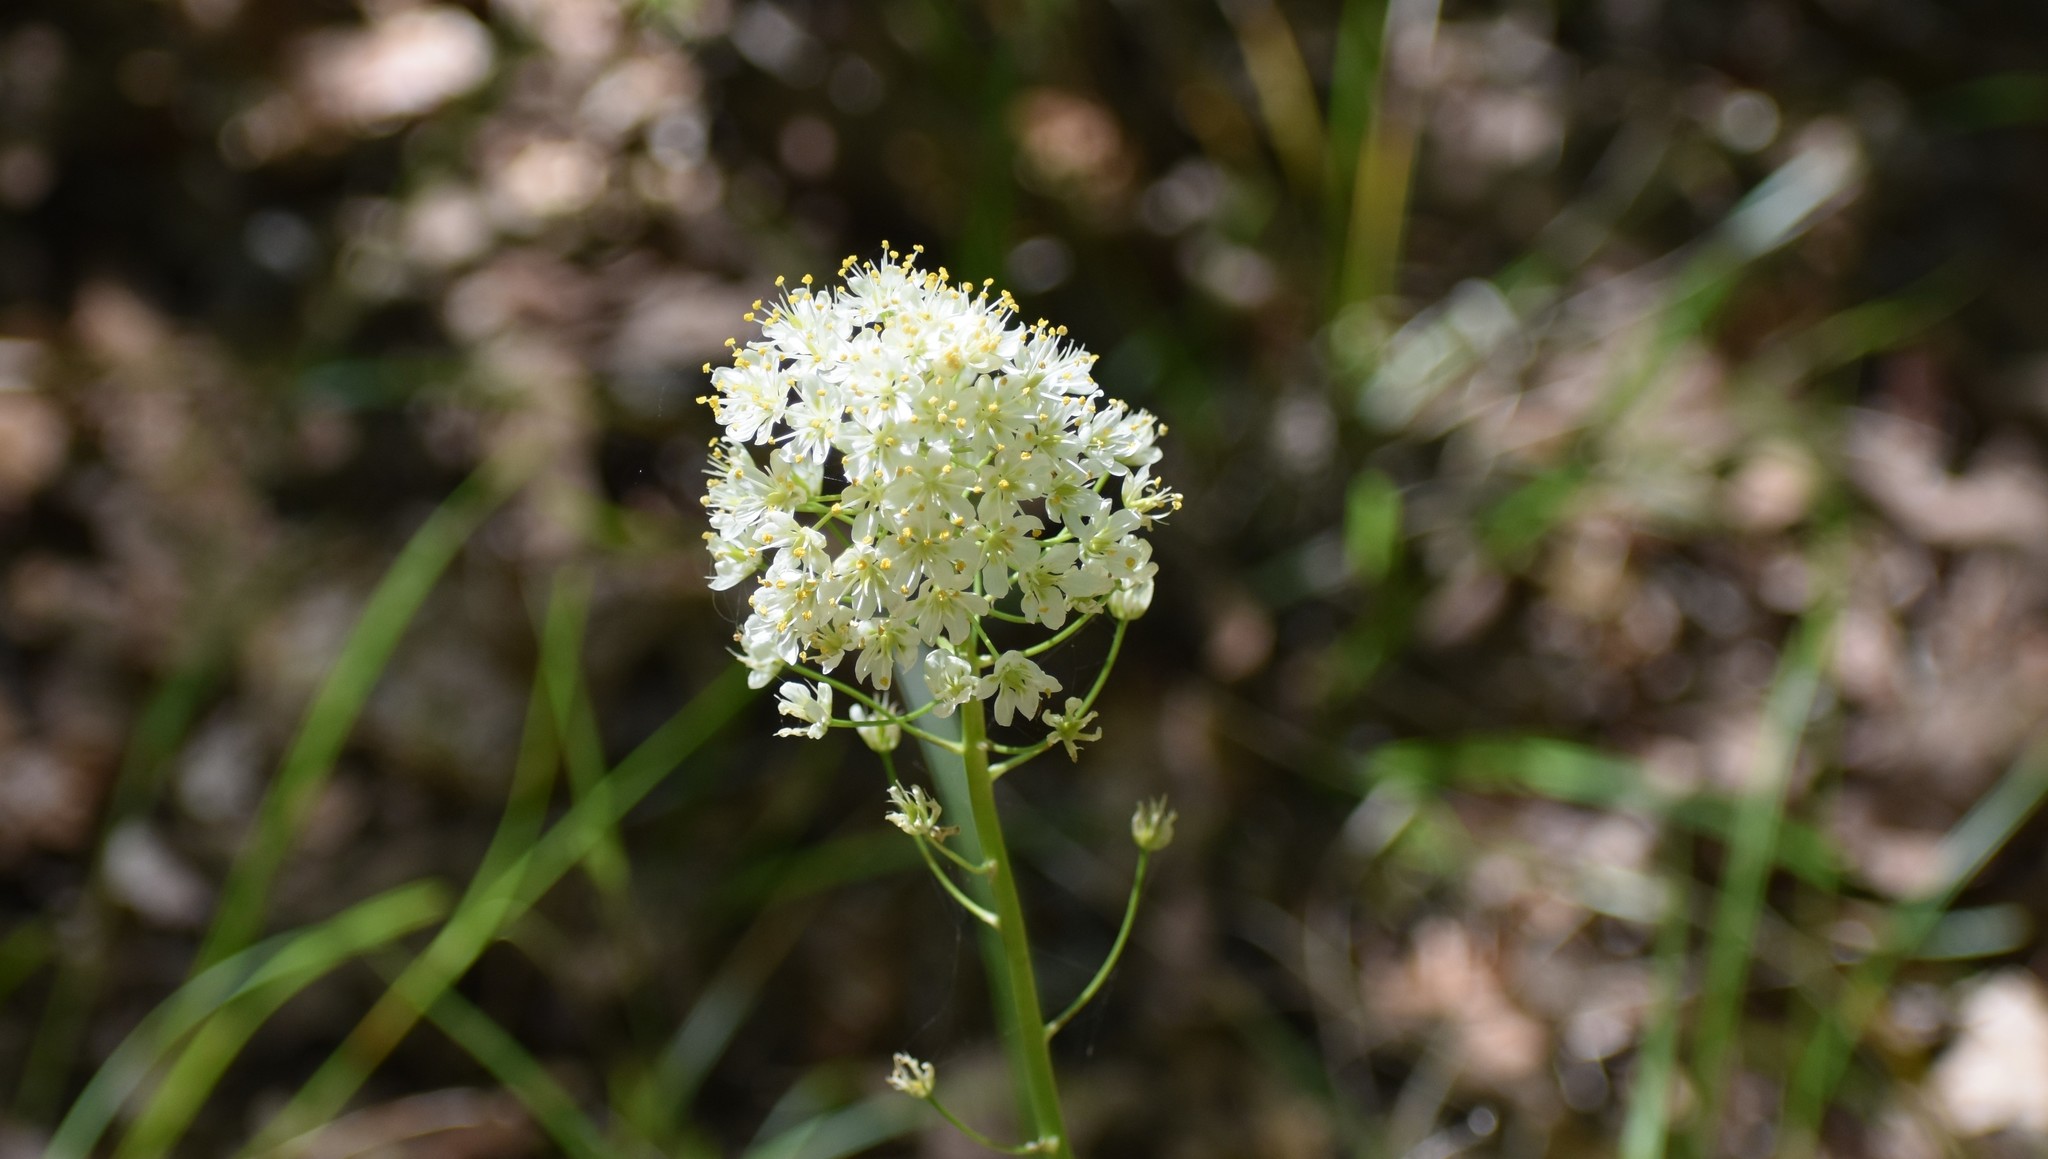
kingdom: Plantae
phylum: Tracheophyta
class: Liliopsida
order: Liliales
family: Melanthiaceae
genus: Toxicoscordion
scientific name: Toxicoscordion nuttallii
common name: Poison sego
